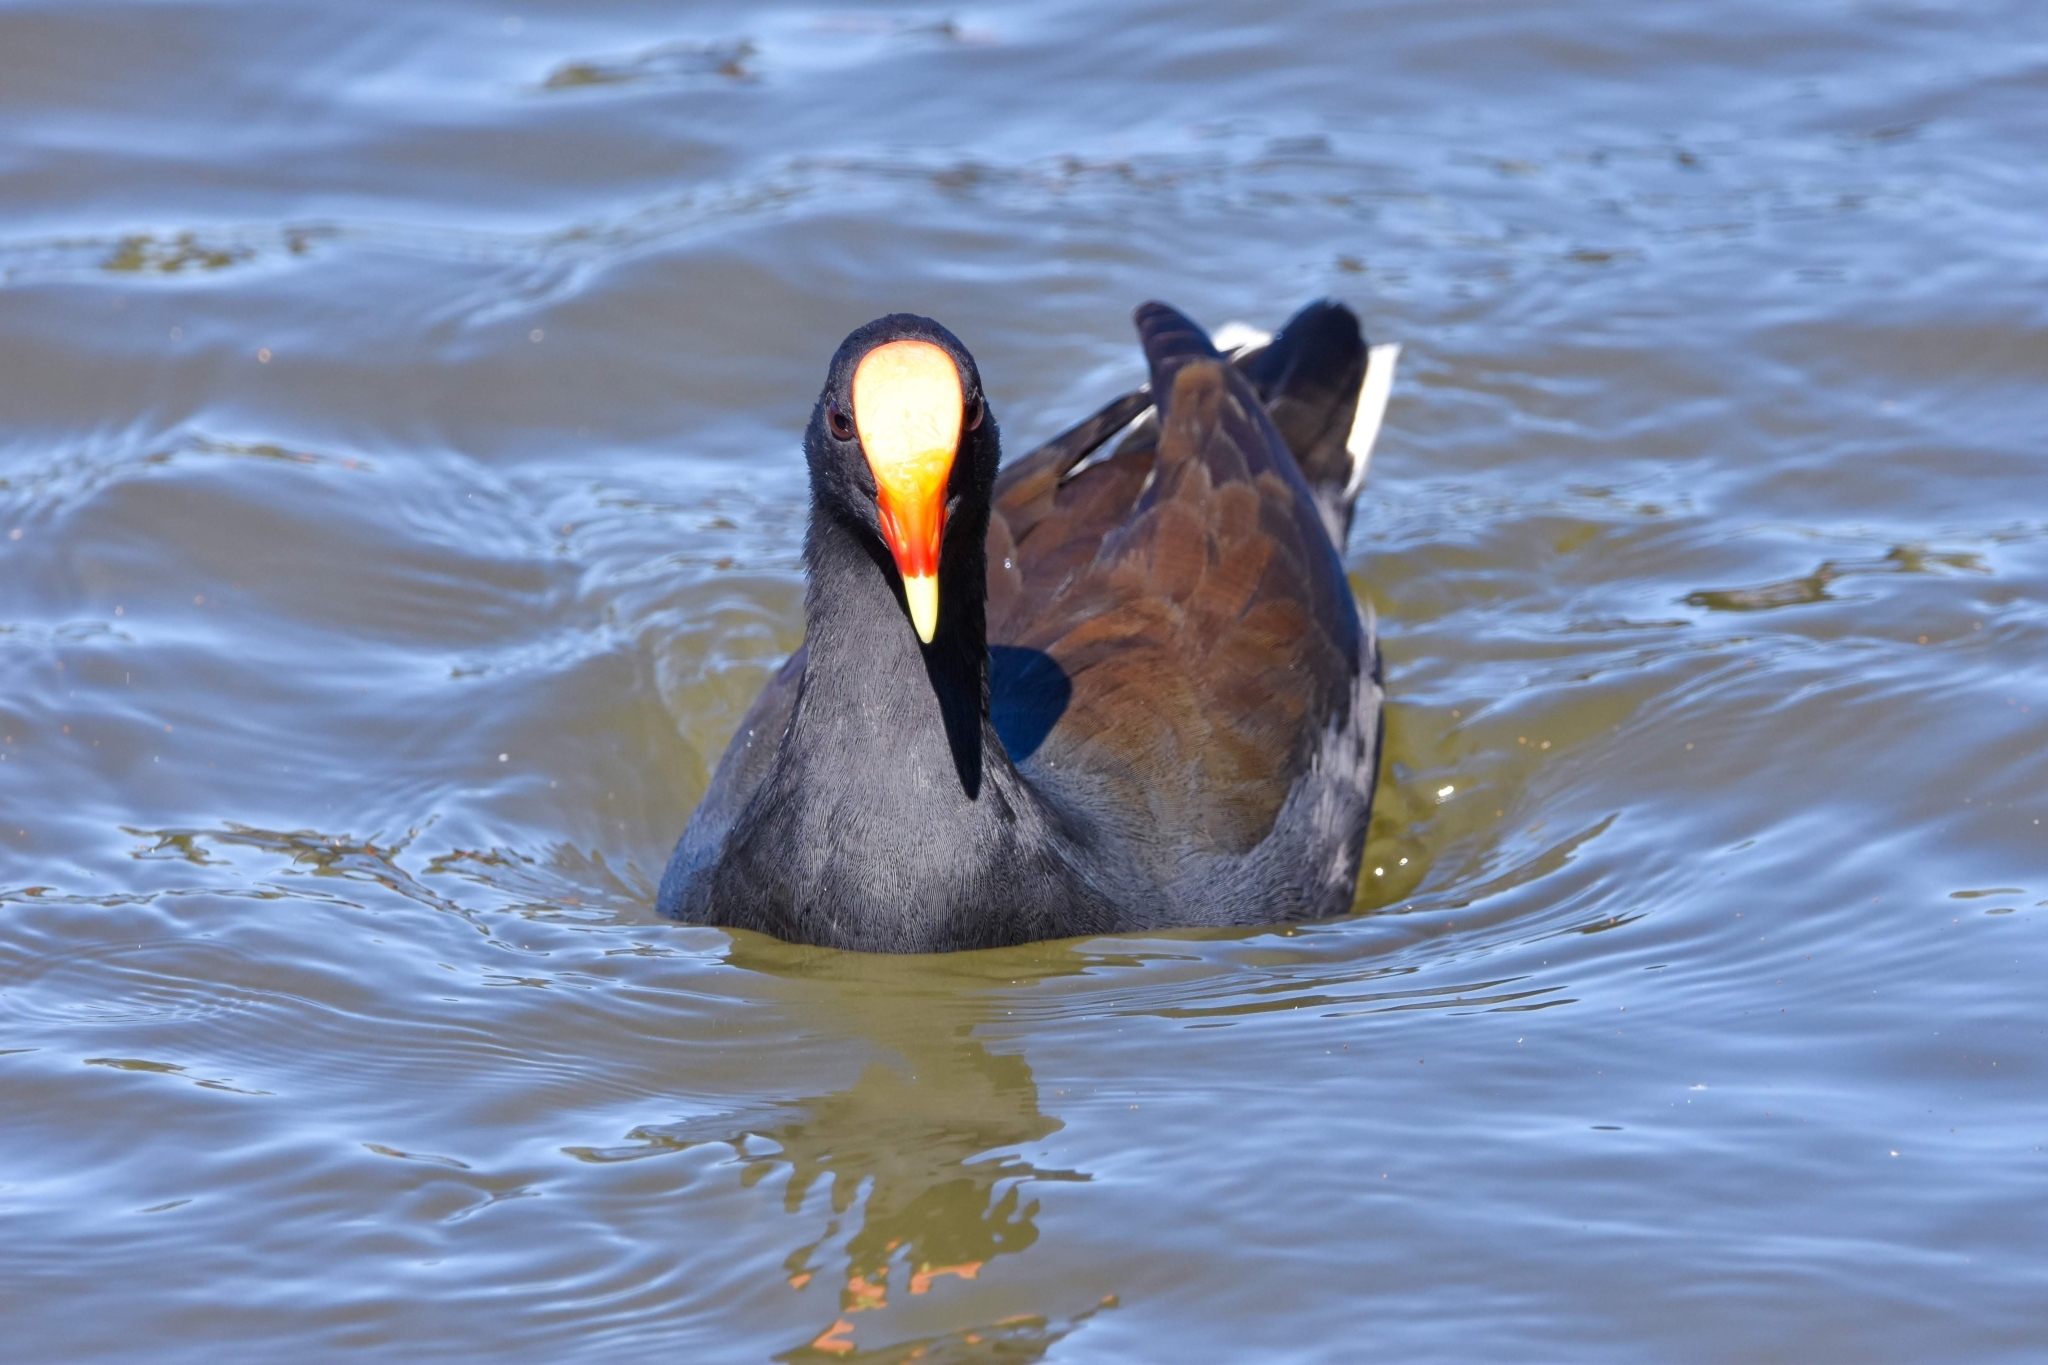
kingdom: Animalia
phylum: Chordata
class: Aves
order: Gruiformes
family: Rallidae
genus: Gallinula
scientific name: Gallinula tenebrosa
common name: Dusky moorhen
